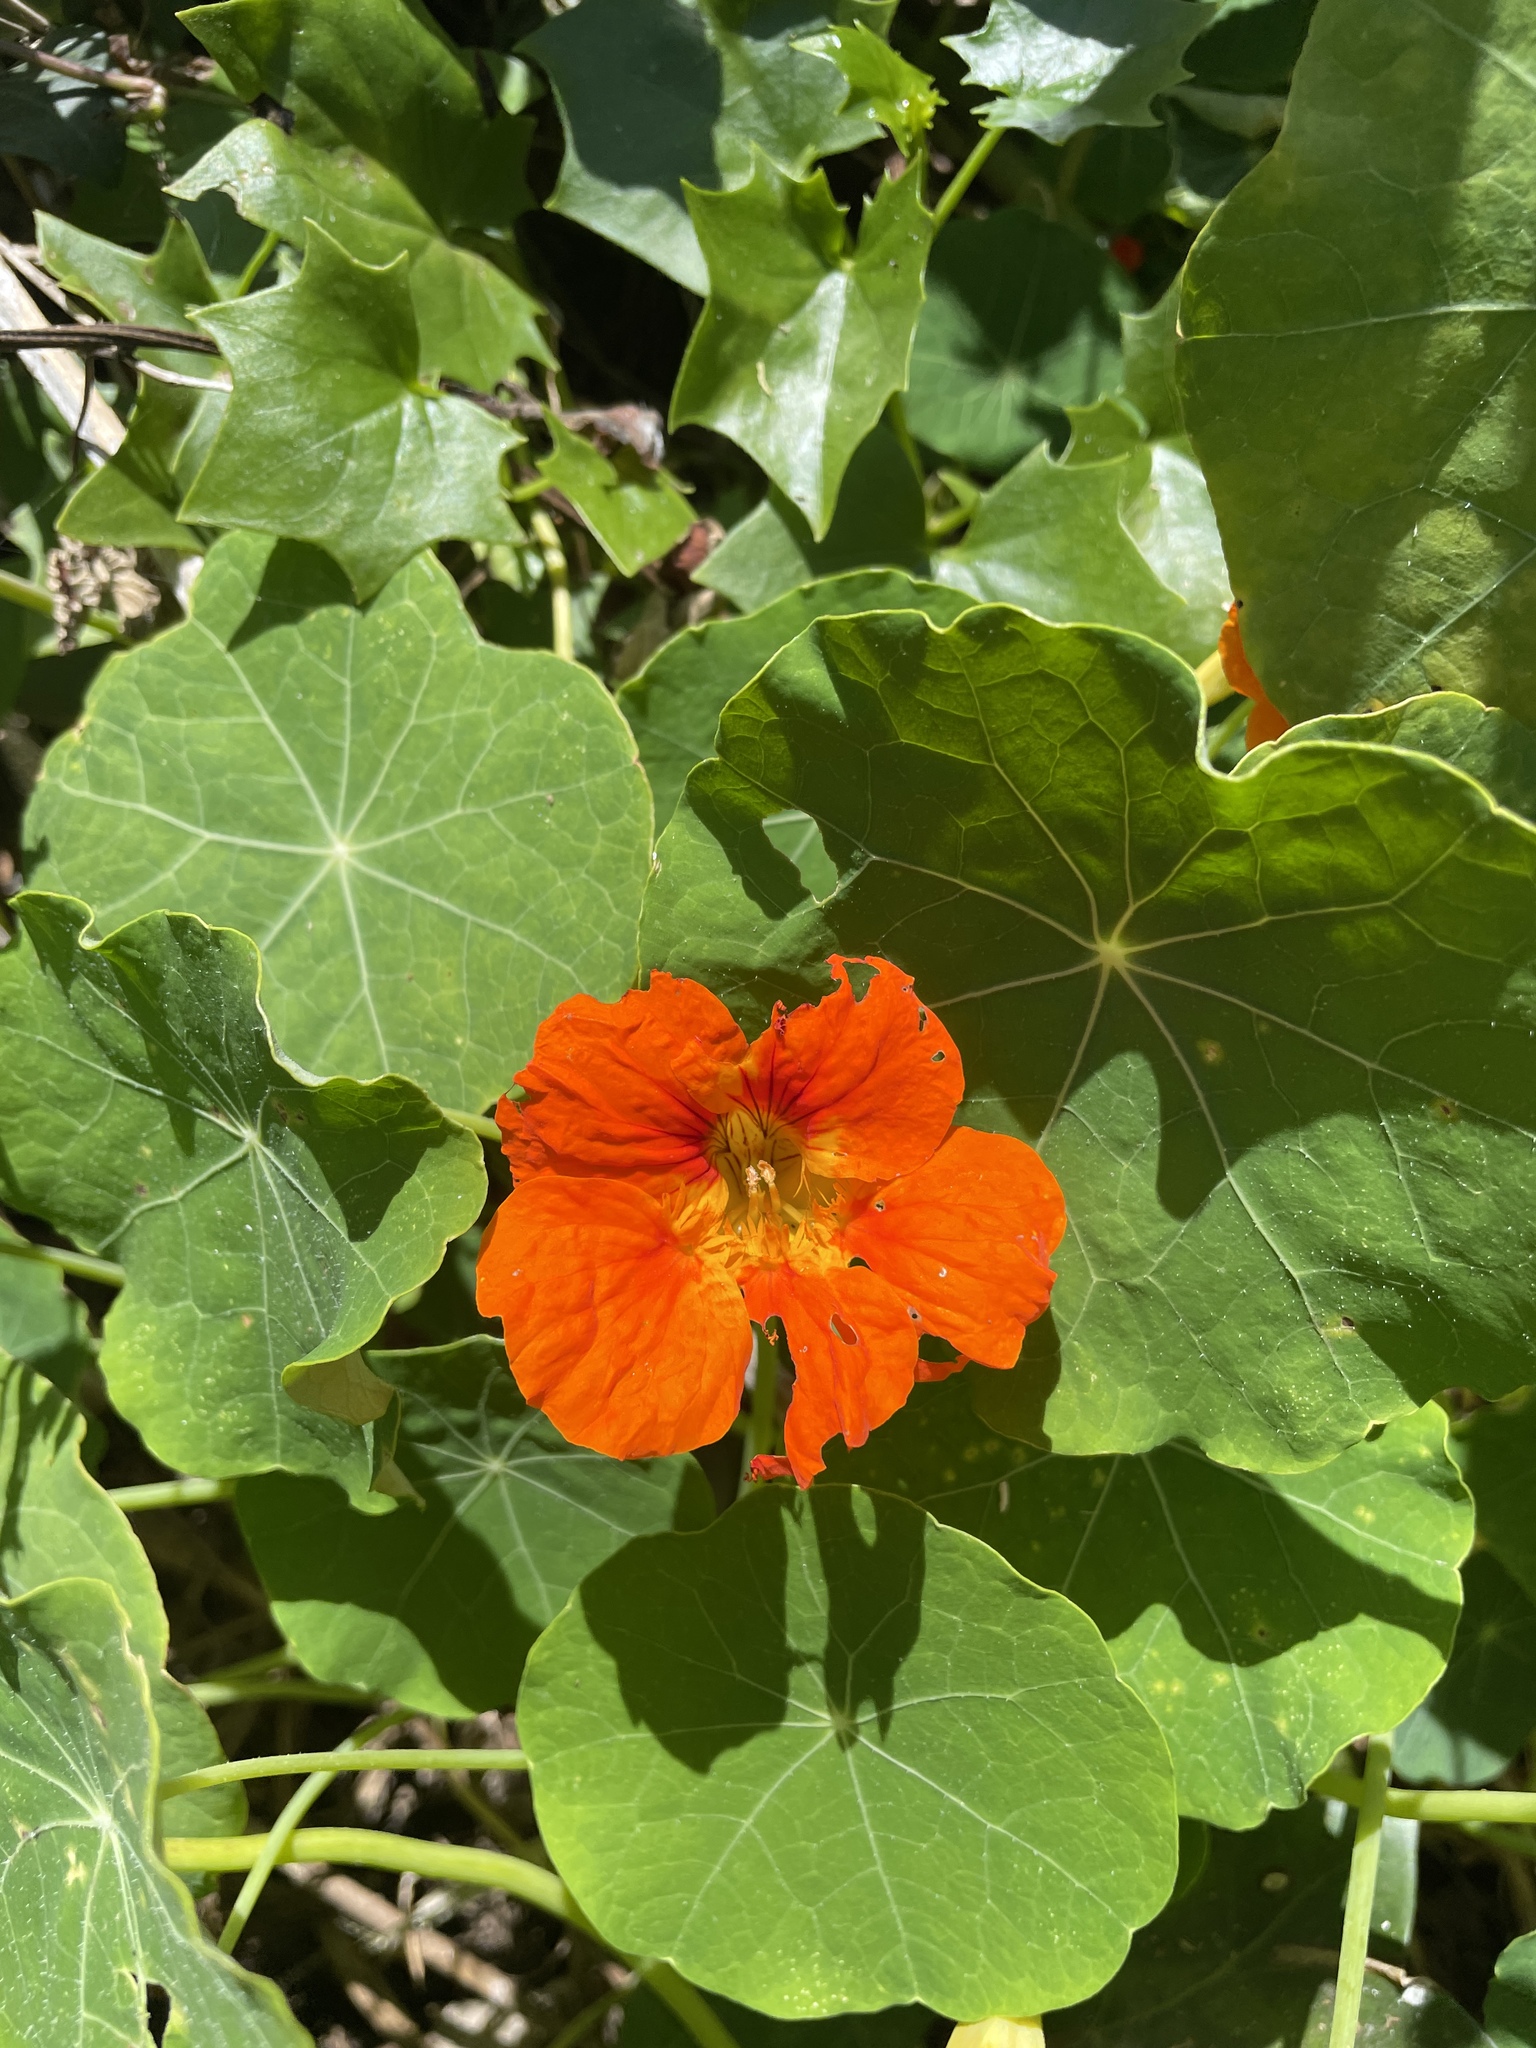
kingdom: Plantae
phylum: Tracheophyta
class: Magnoliopsida
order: Brassicales
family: Tropaeolaceae
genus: Tropaeolum
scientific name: Tropaeolum majus
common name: Nasturtium
